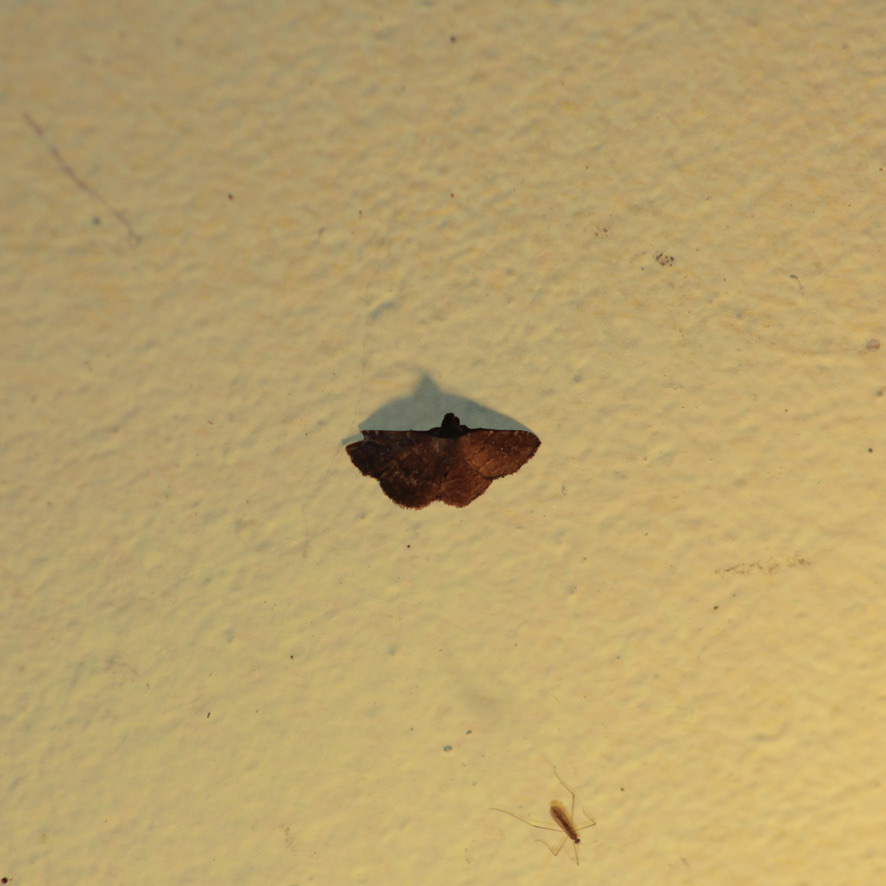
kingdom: Animalia
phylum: Arthropoda
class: Insecta
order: Lepidoptera
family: Erebidae
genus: Ostha
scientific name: Ostha coryphata
